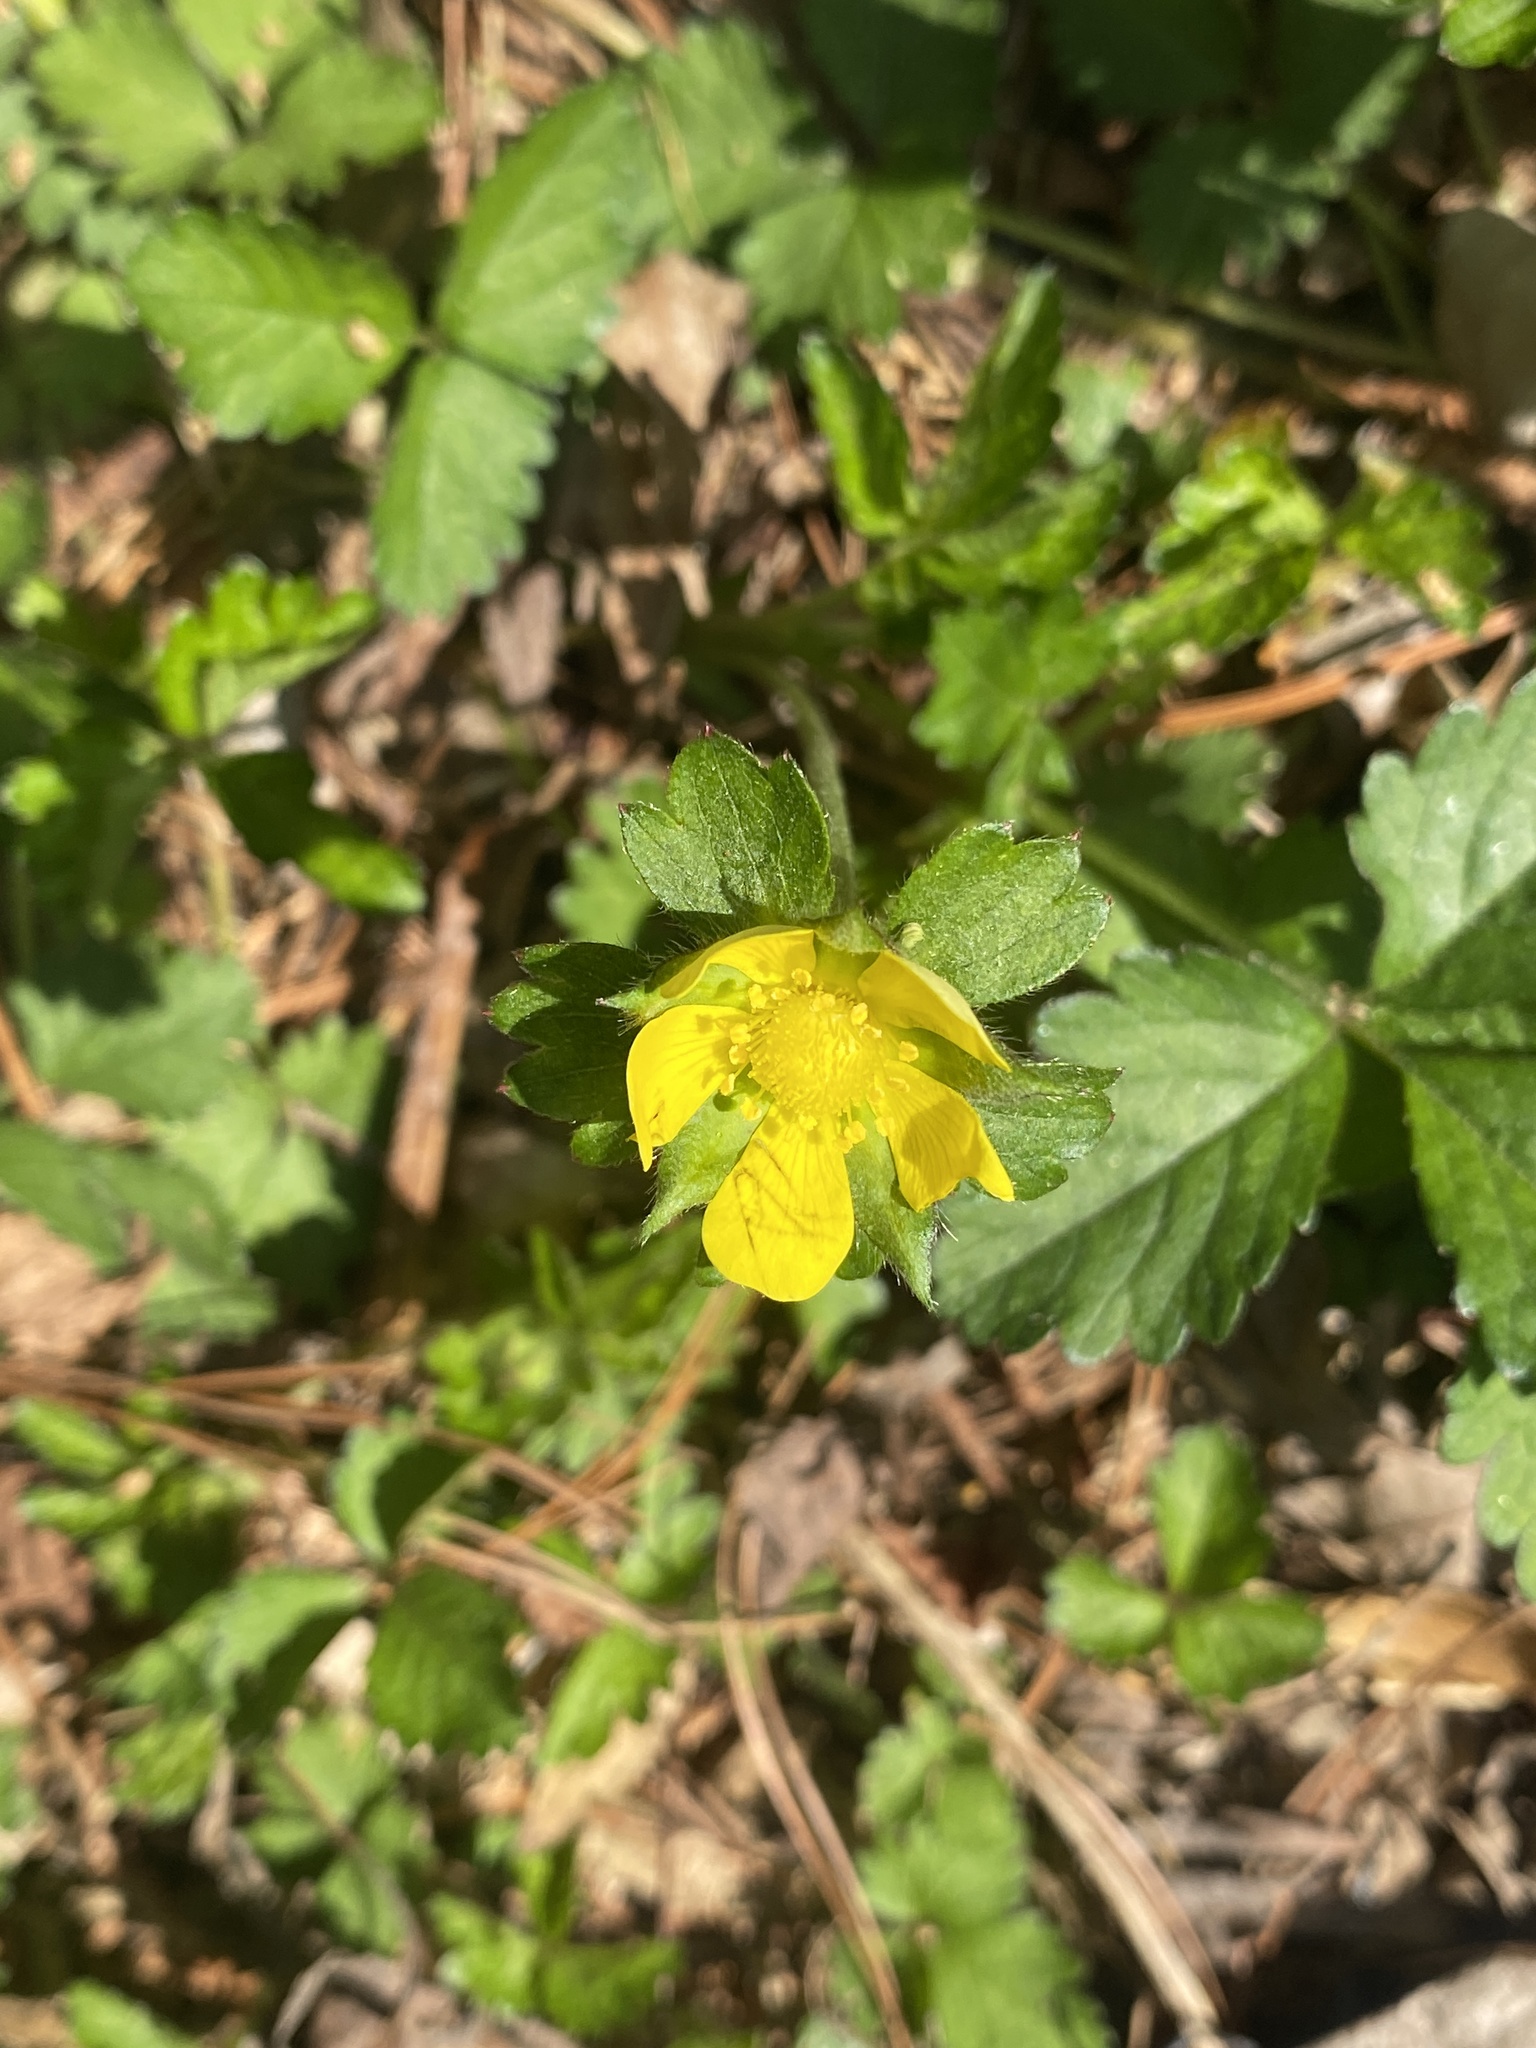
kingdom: Plantae
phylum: Tracheophyta
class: Magnoliopsida
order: Rosales
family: Rosaceae
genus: Potentilla
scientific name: Potentilla indica
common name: Yellow-flowered strawberry
